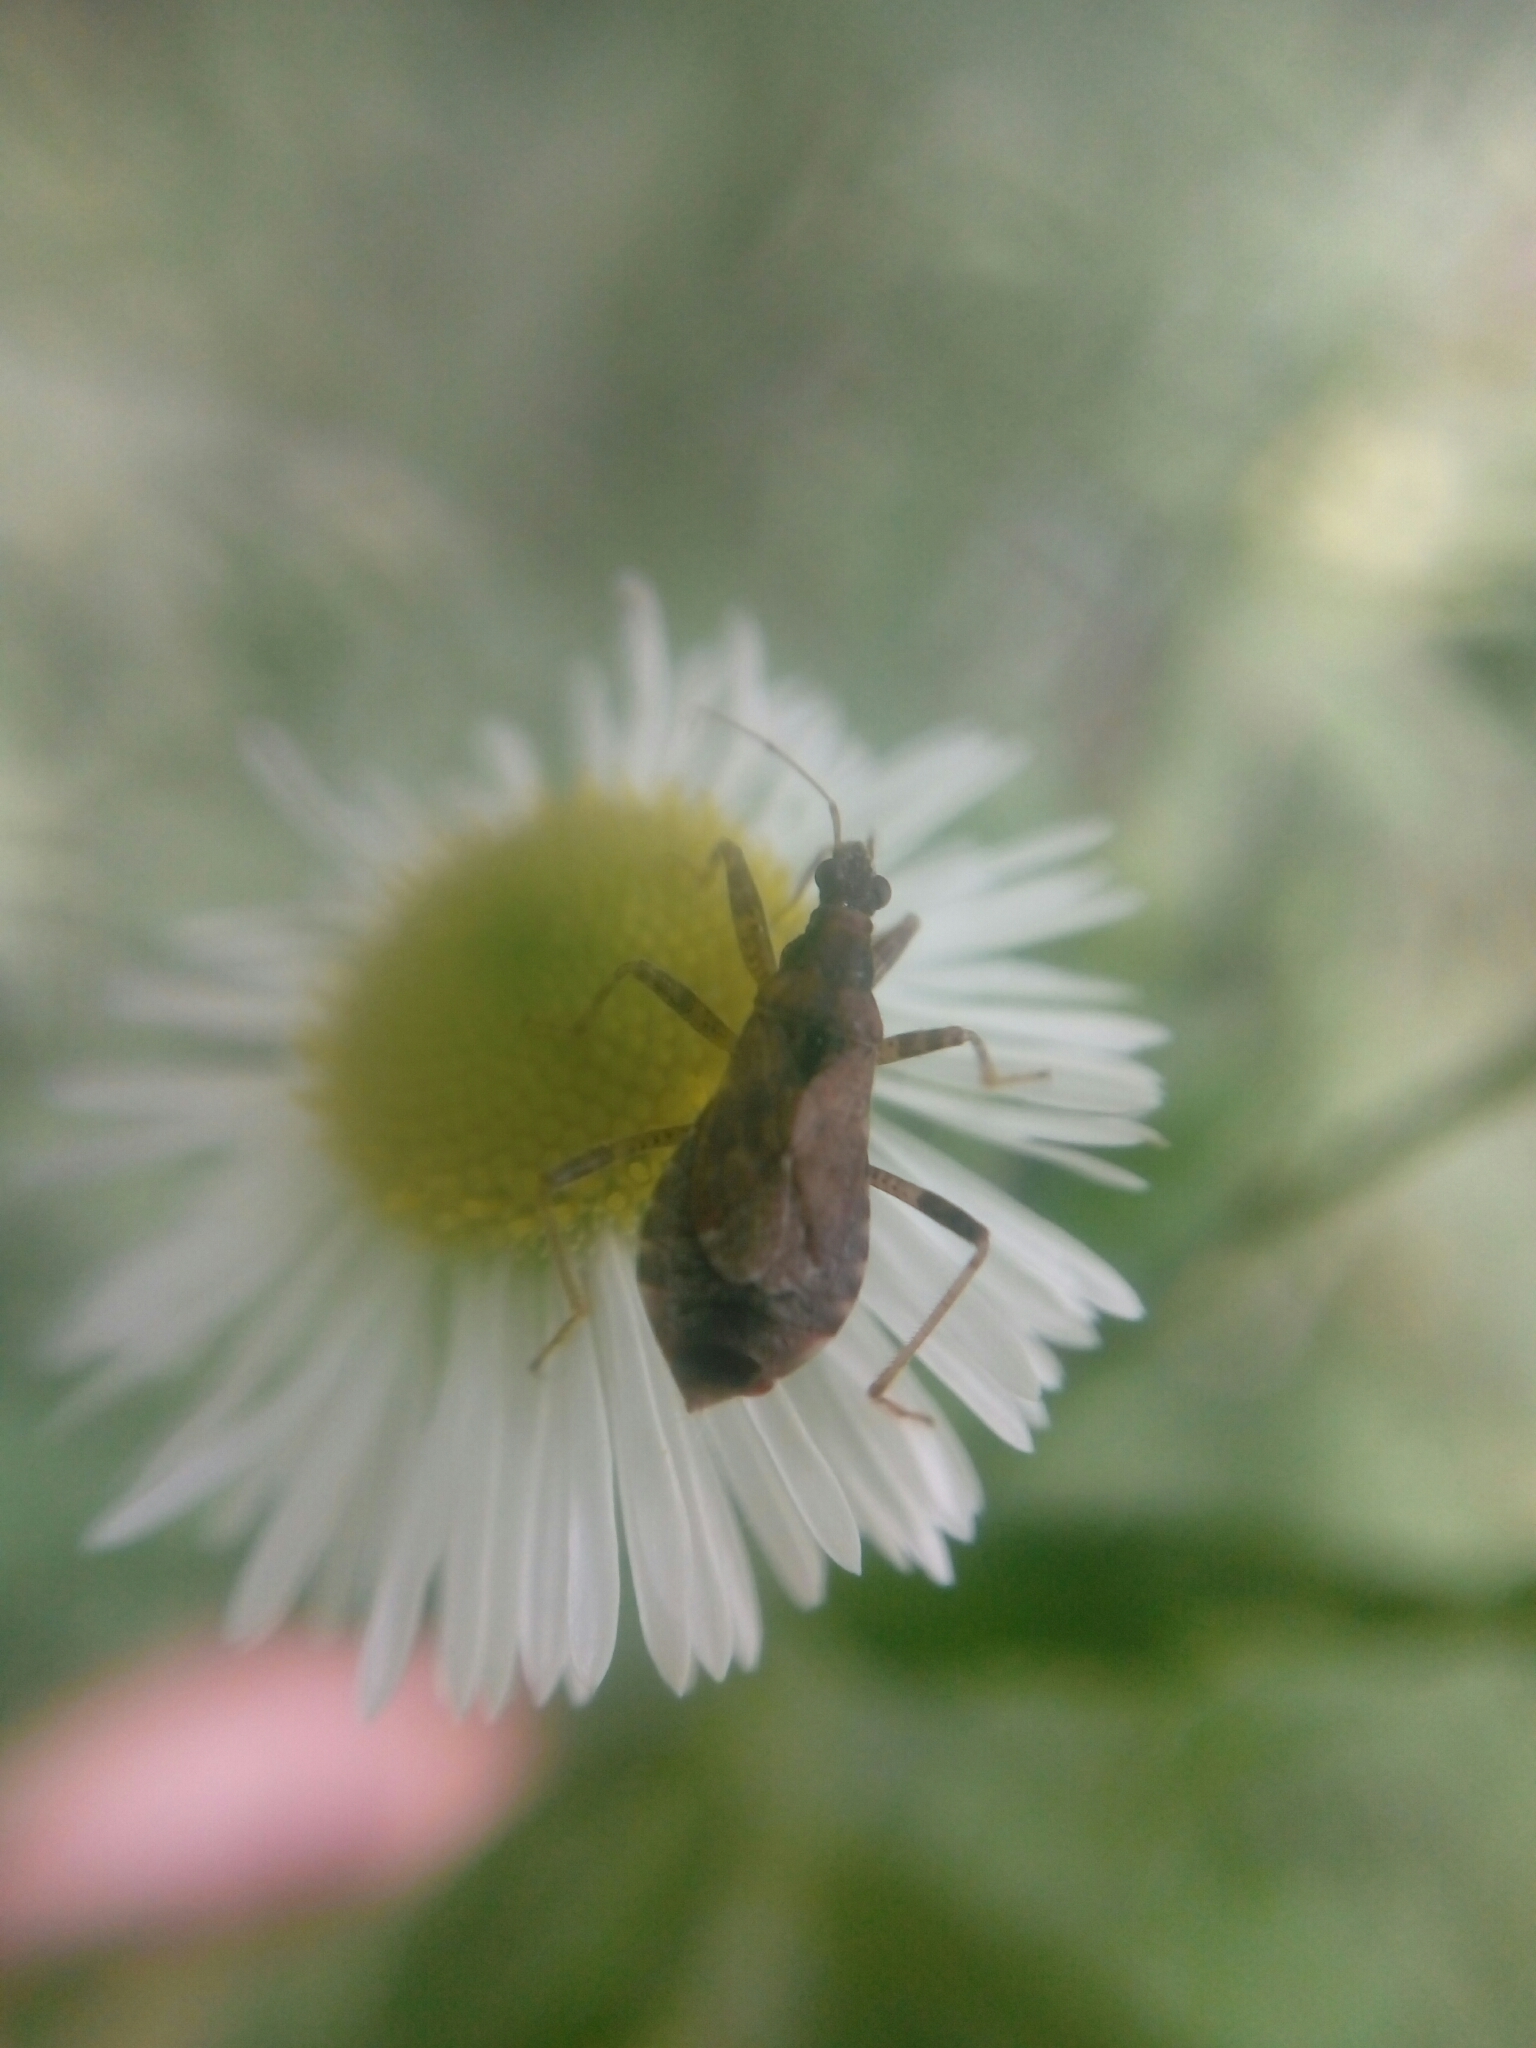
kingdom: Animalia
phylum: Arthropoda
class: Insecta
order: Hemiptera
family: Nabidae
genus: Himacerus
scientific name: Himacerus mirmicoides
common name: Ant damsel bug
